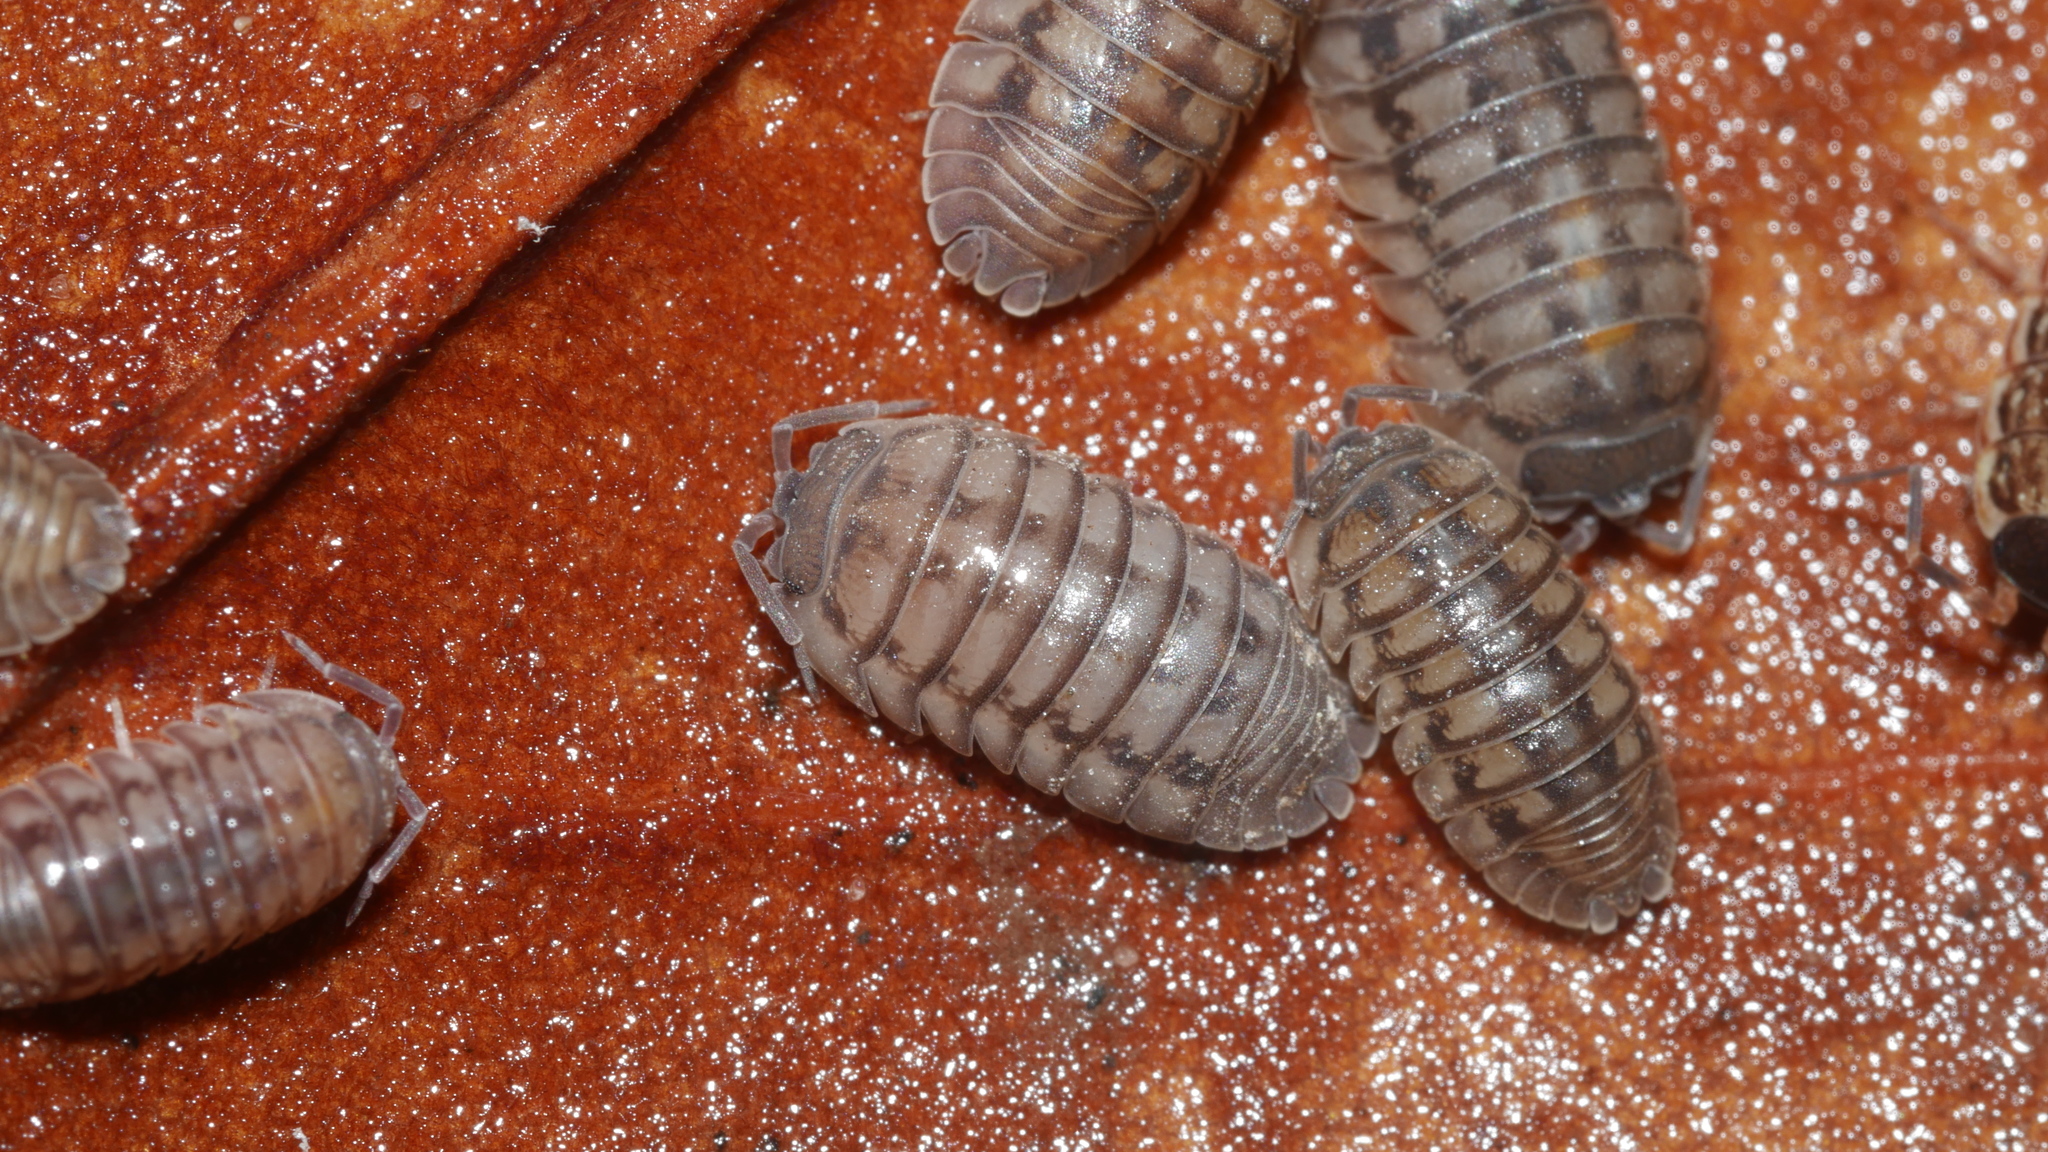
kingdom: Animalia
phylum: Arthropoda
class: Malacostraca
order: Isopoda
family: Armadillidiidae
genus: Armadillidium
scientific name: Armadillidium nasatum
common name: Isopod
